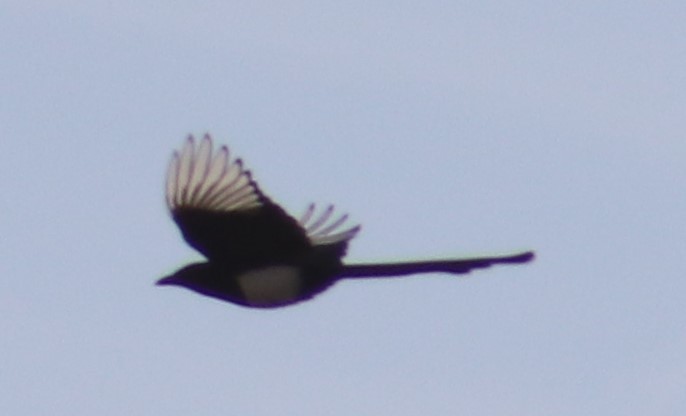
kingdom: Animalia
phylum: Chordata
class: Aves
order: Passeriformes
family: Corvidae
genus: Pica
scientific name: Pica hudsonia
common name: Black-billed magpie
